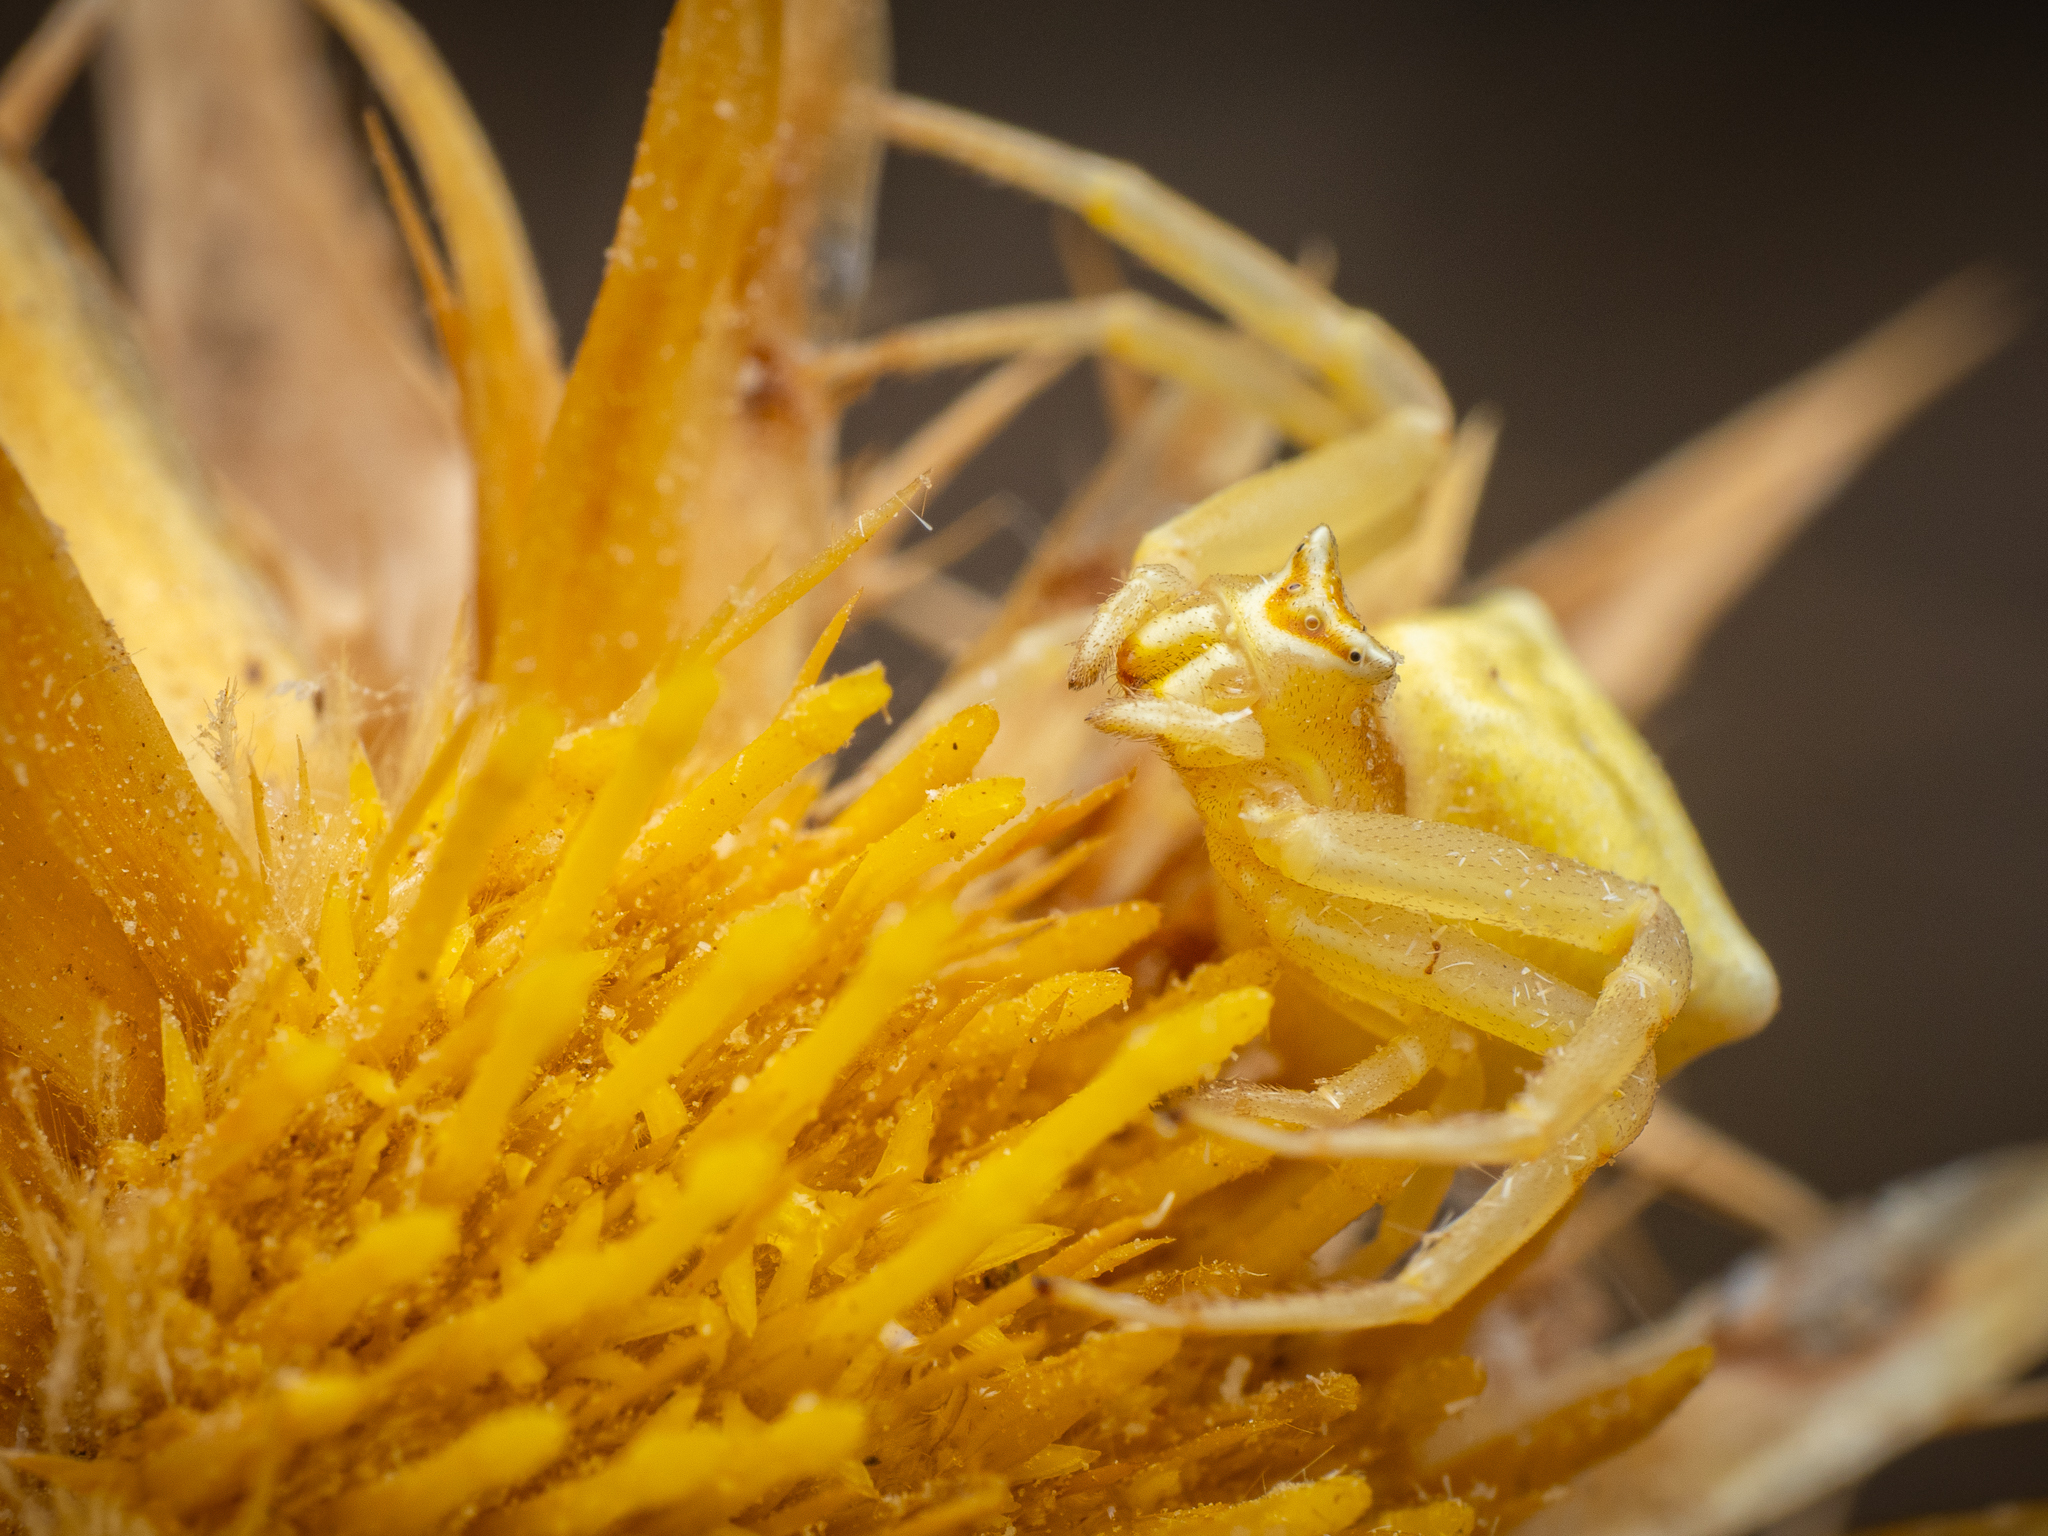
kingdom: Animalia
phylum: Arthropoda
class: Arachnida
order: Araneae
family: Thomisidae
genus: Thomisus
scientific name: Thomisus onustus
